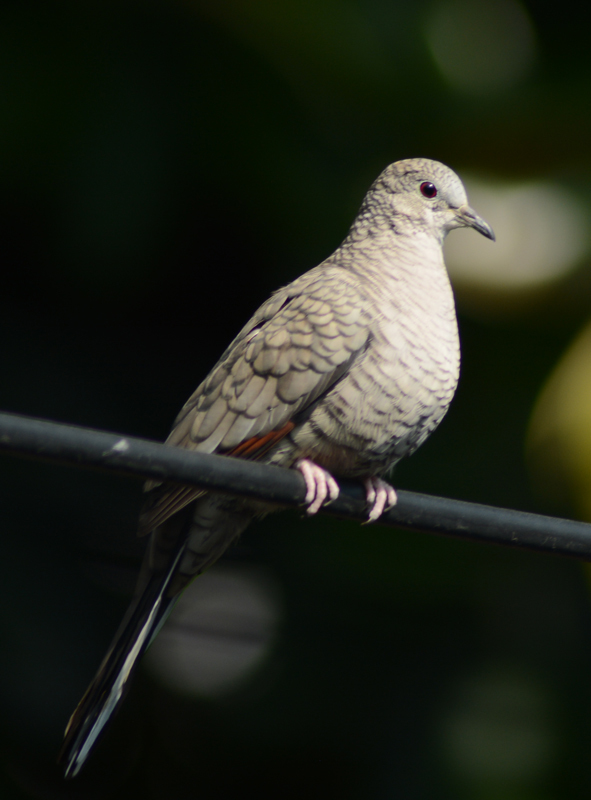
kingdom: Animalia
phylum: Chordata
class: Aves
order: Columbiformes
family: Columbidae
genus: Columbina
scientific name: Columbina inca
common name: Inca dove
